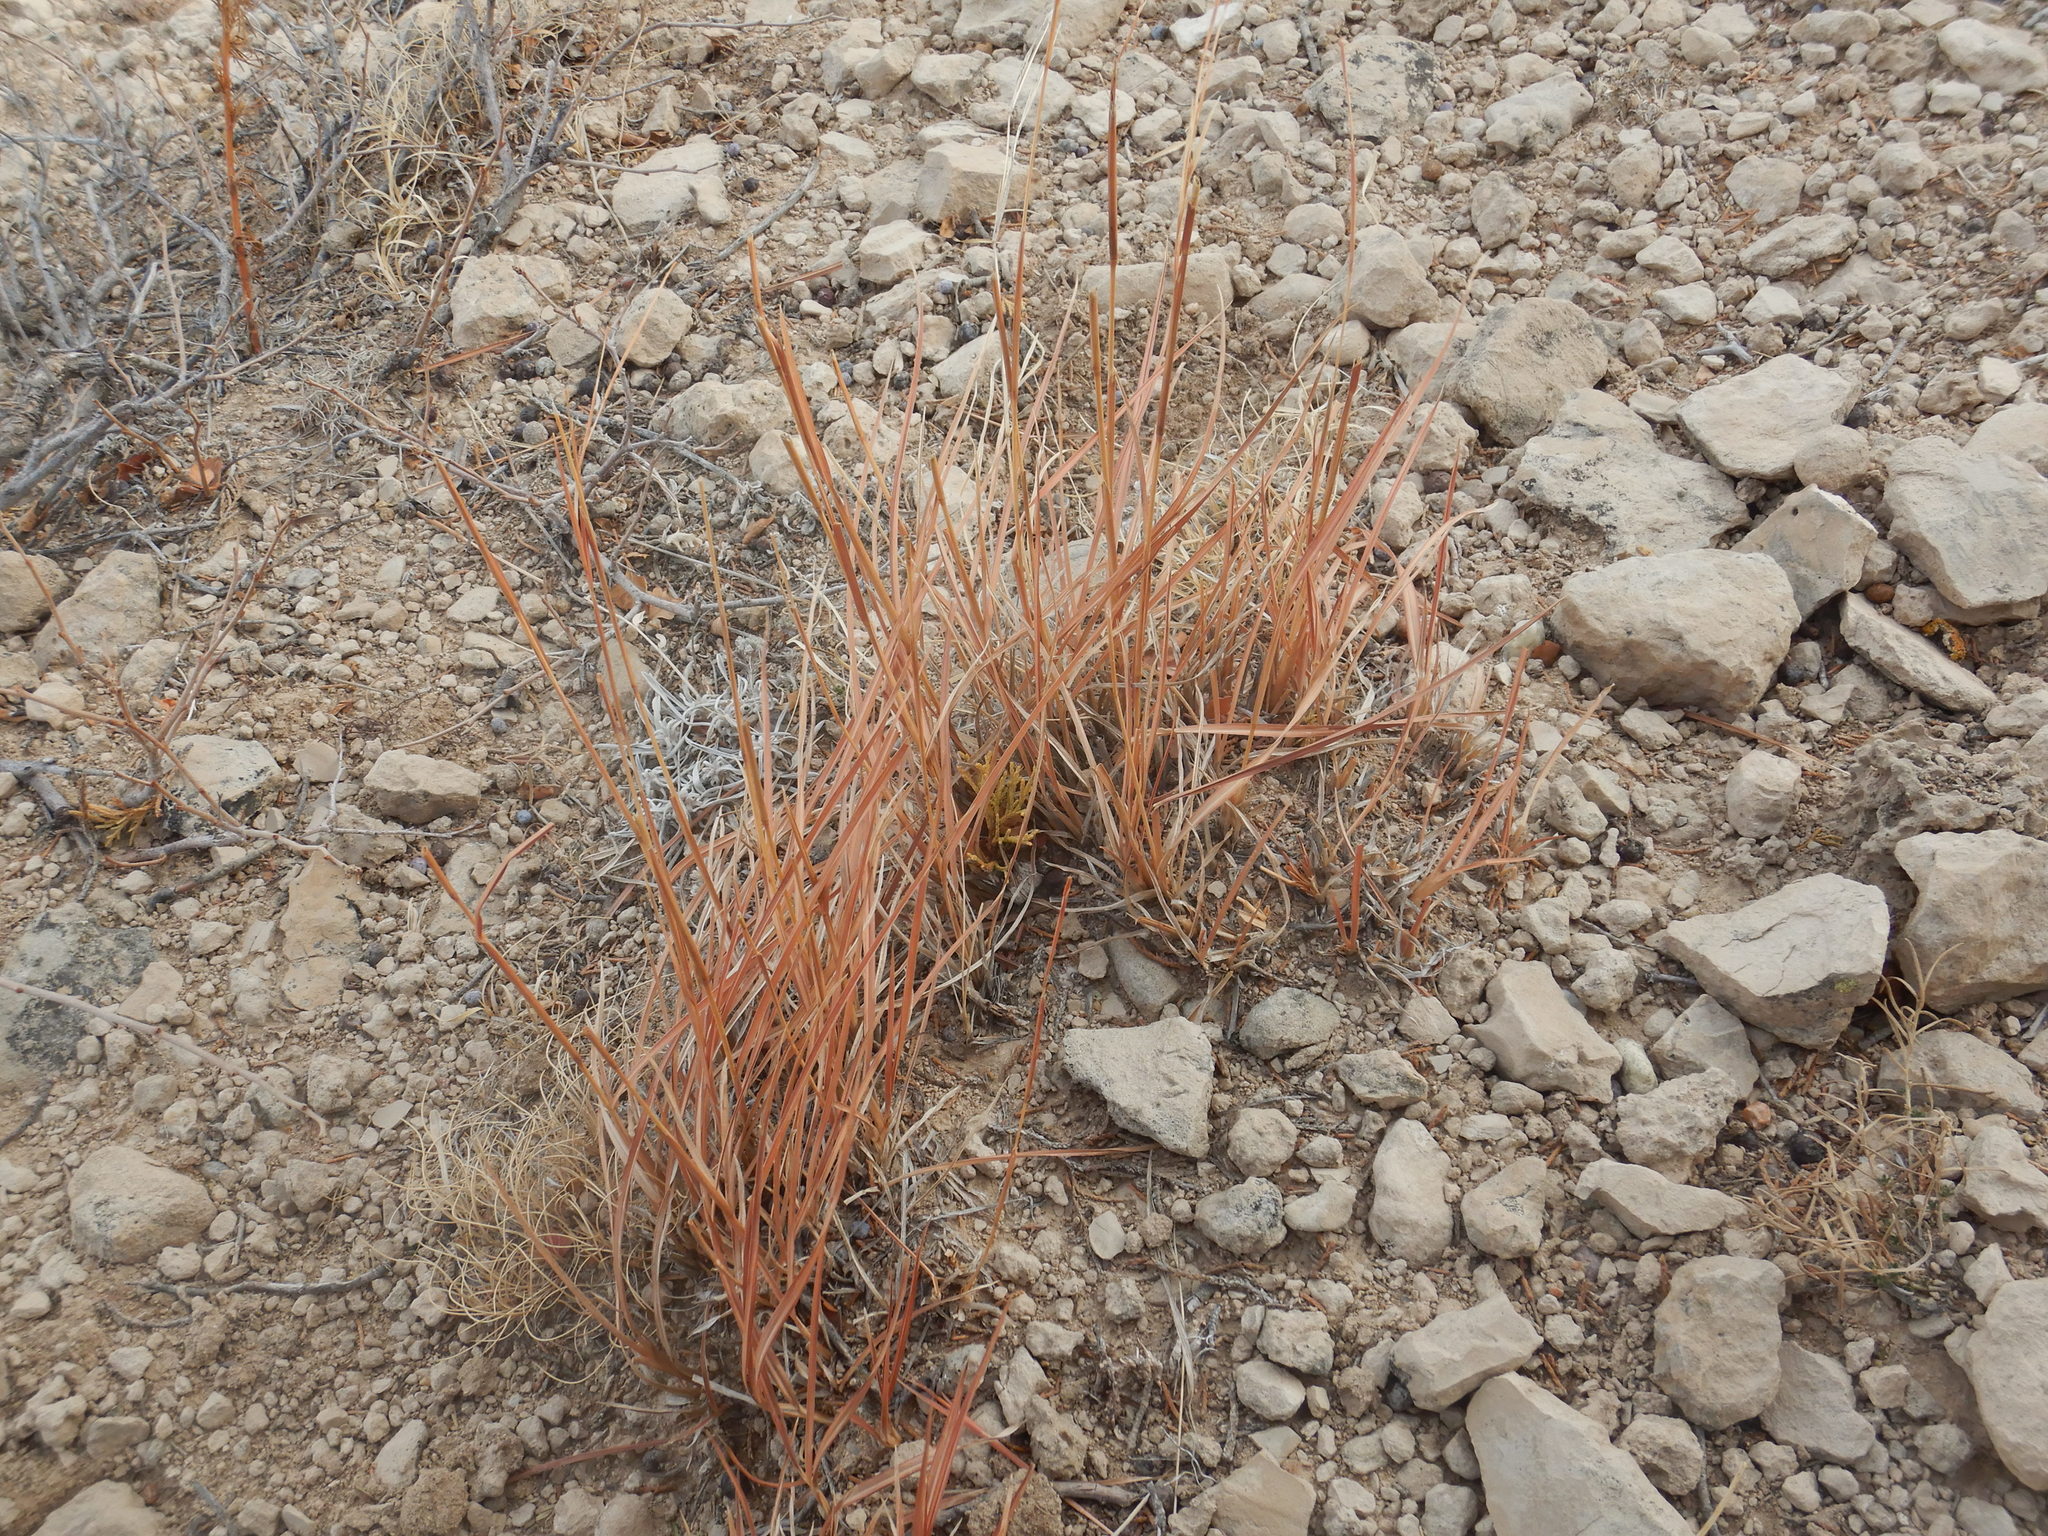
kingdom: Plantae
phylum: Tracheophyta
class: Liliopsida
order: Poales
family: Poaceae
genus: Schizachyrium
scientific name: Schizachyrium scoparium
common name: Little bluestem
